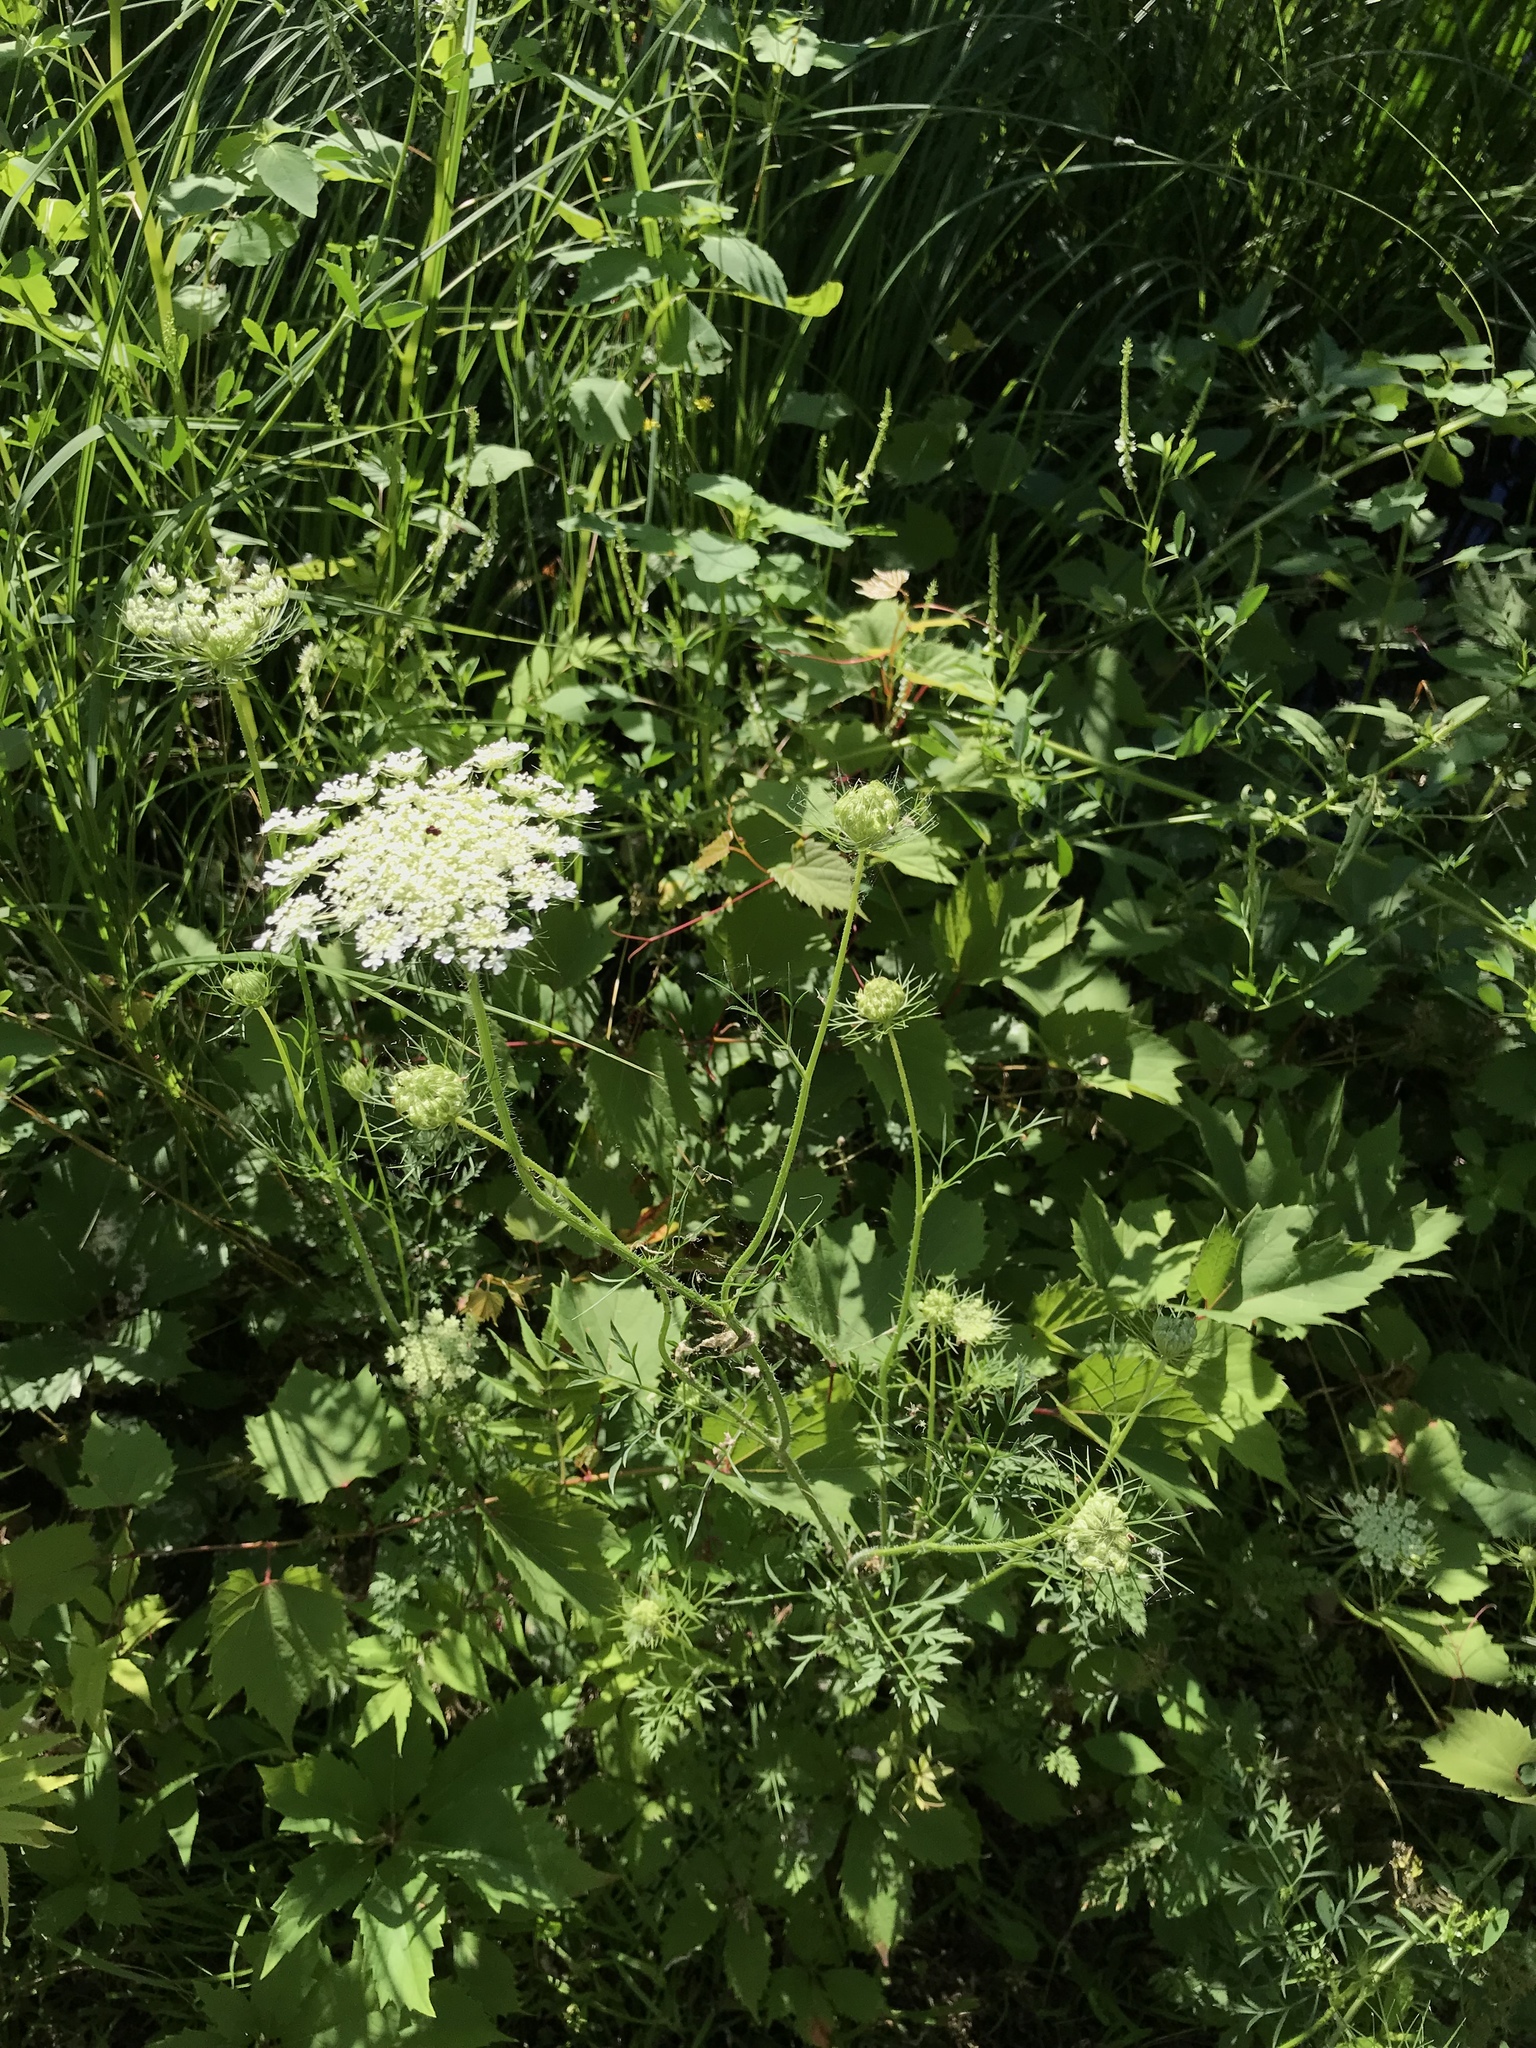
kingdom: Plantae
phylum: Tracheophyta
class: Magnoliopsida
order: Apiales
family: Apiaceae
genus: Daucus
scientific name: Daucus carota
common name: Wild carrot
